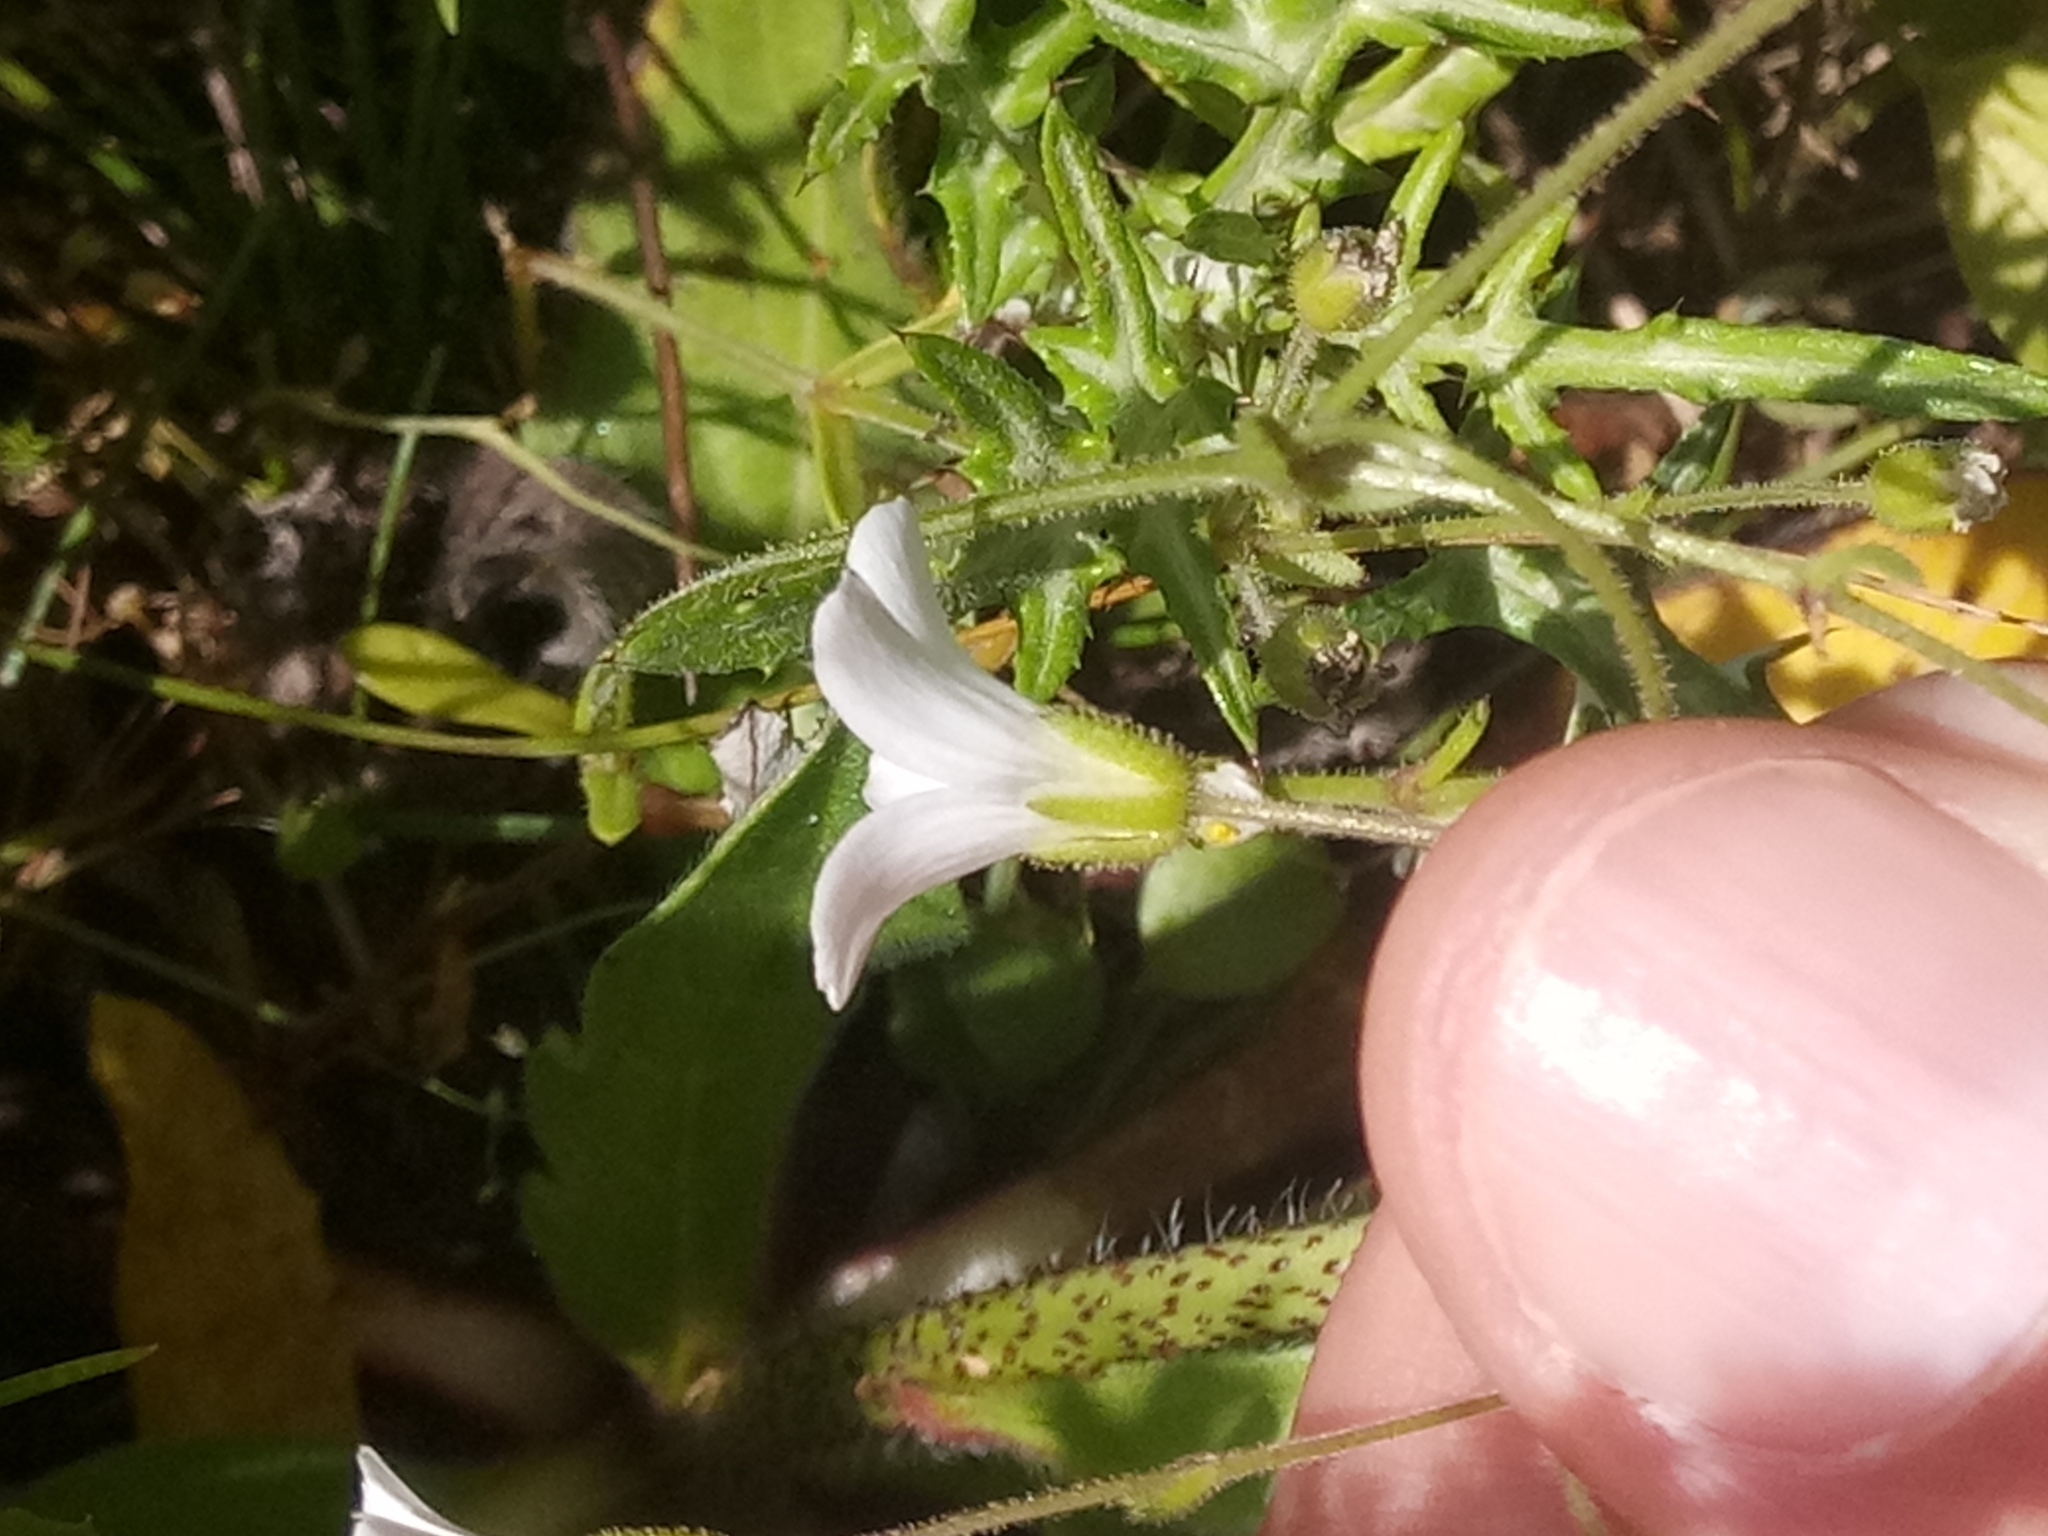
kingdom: Plantae
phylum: Tracheophyta
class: Magnoliopsida
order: Caryophyllales
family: Caryophyllaceae
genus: Arenaria
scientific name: Arenaria cerastioides
